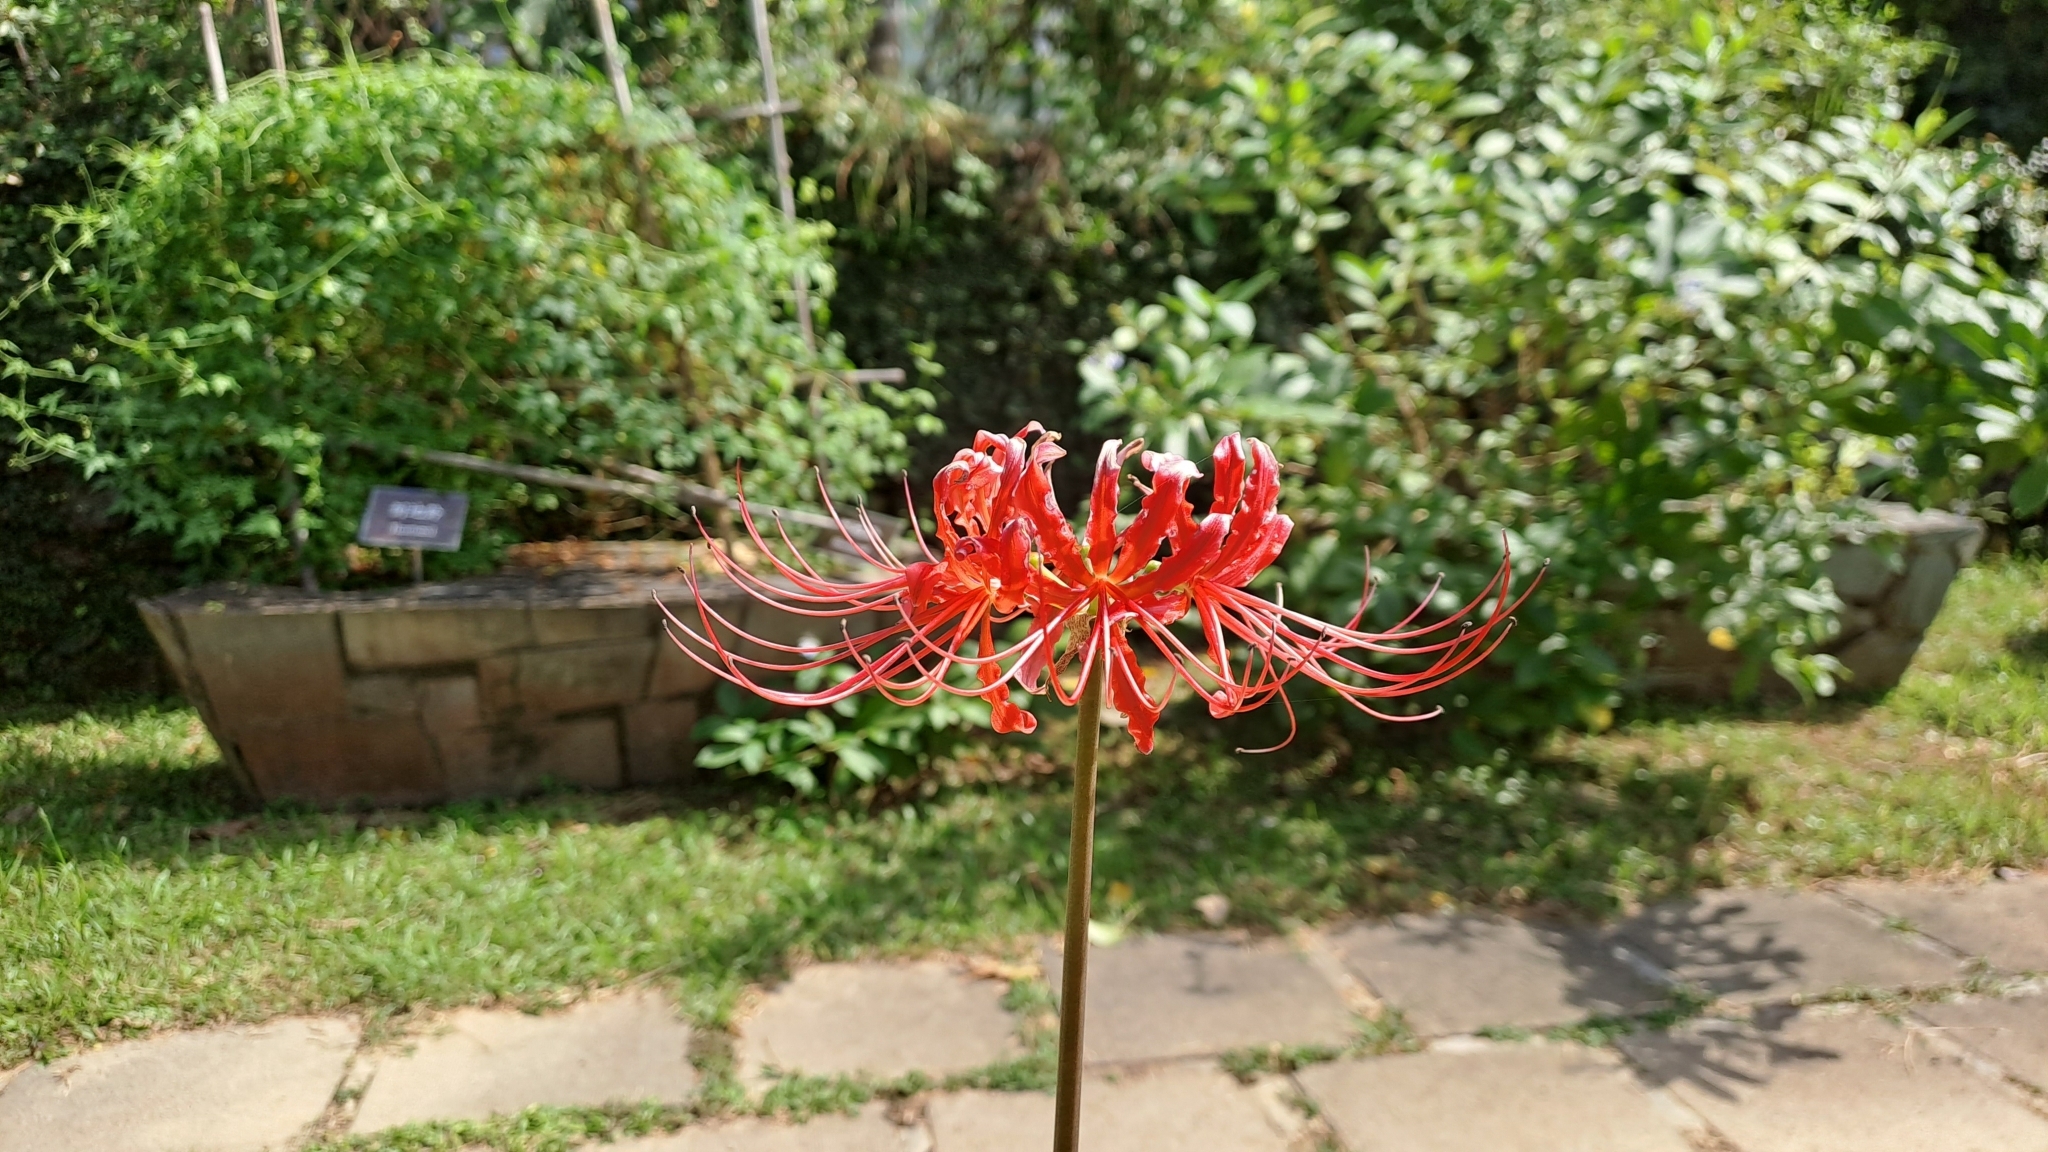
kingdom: Plantae
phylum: Tracheophyta
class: Liliopsida
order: Asparagales
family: Amaryllidaceae
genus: Lycoris
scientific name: Lycoris radiata
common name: Red spider lily
